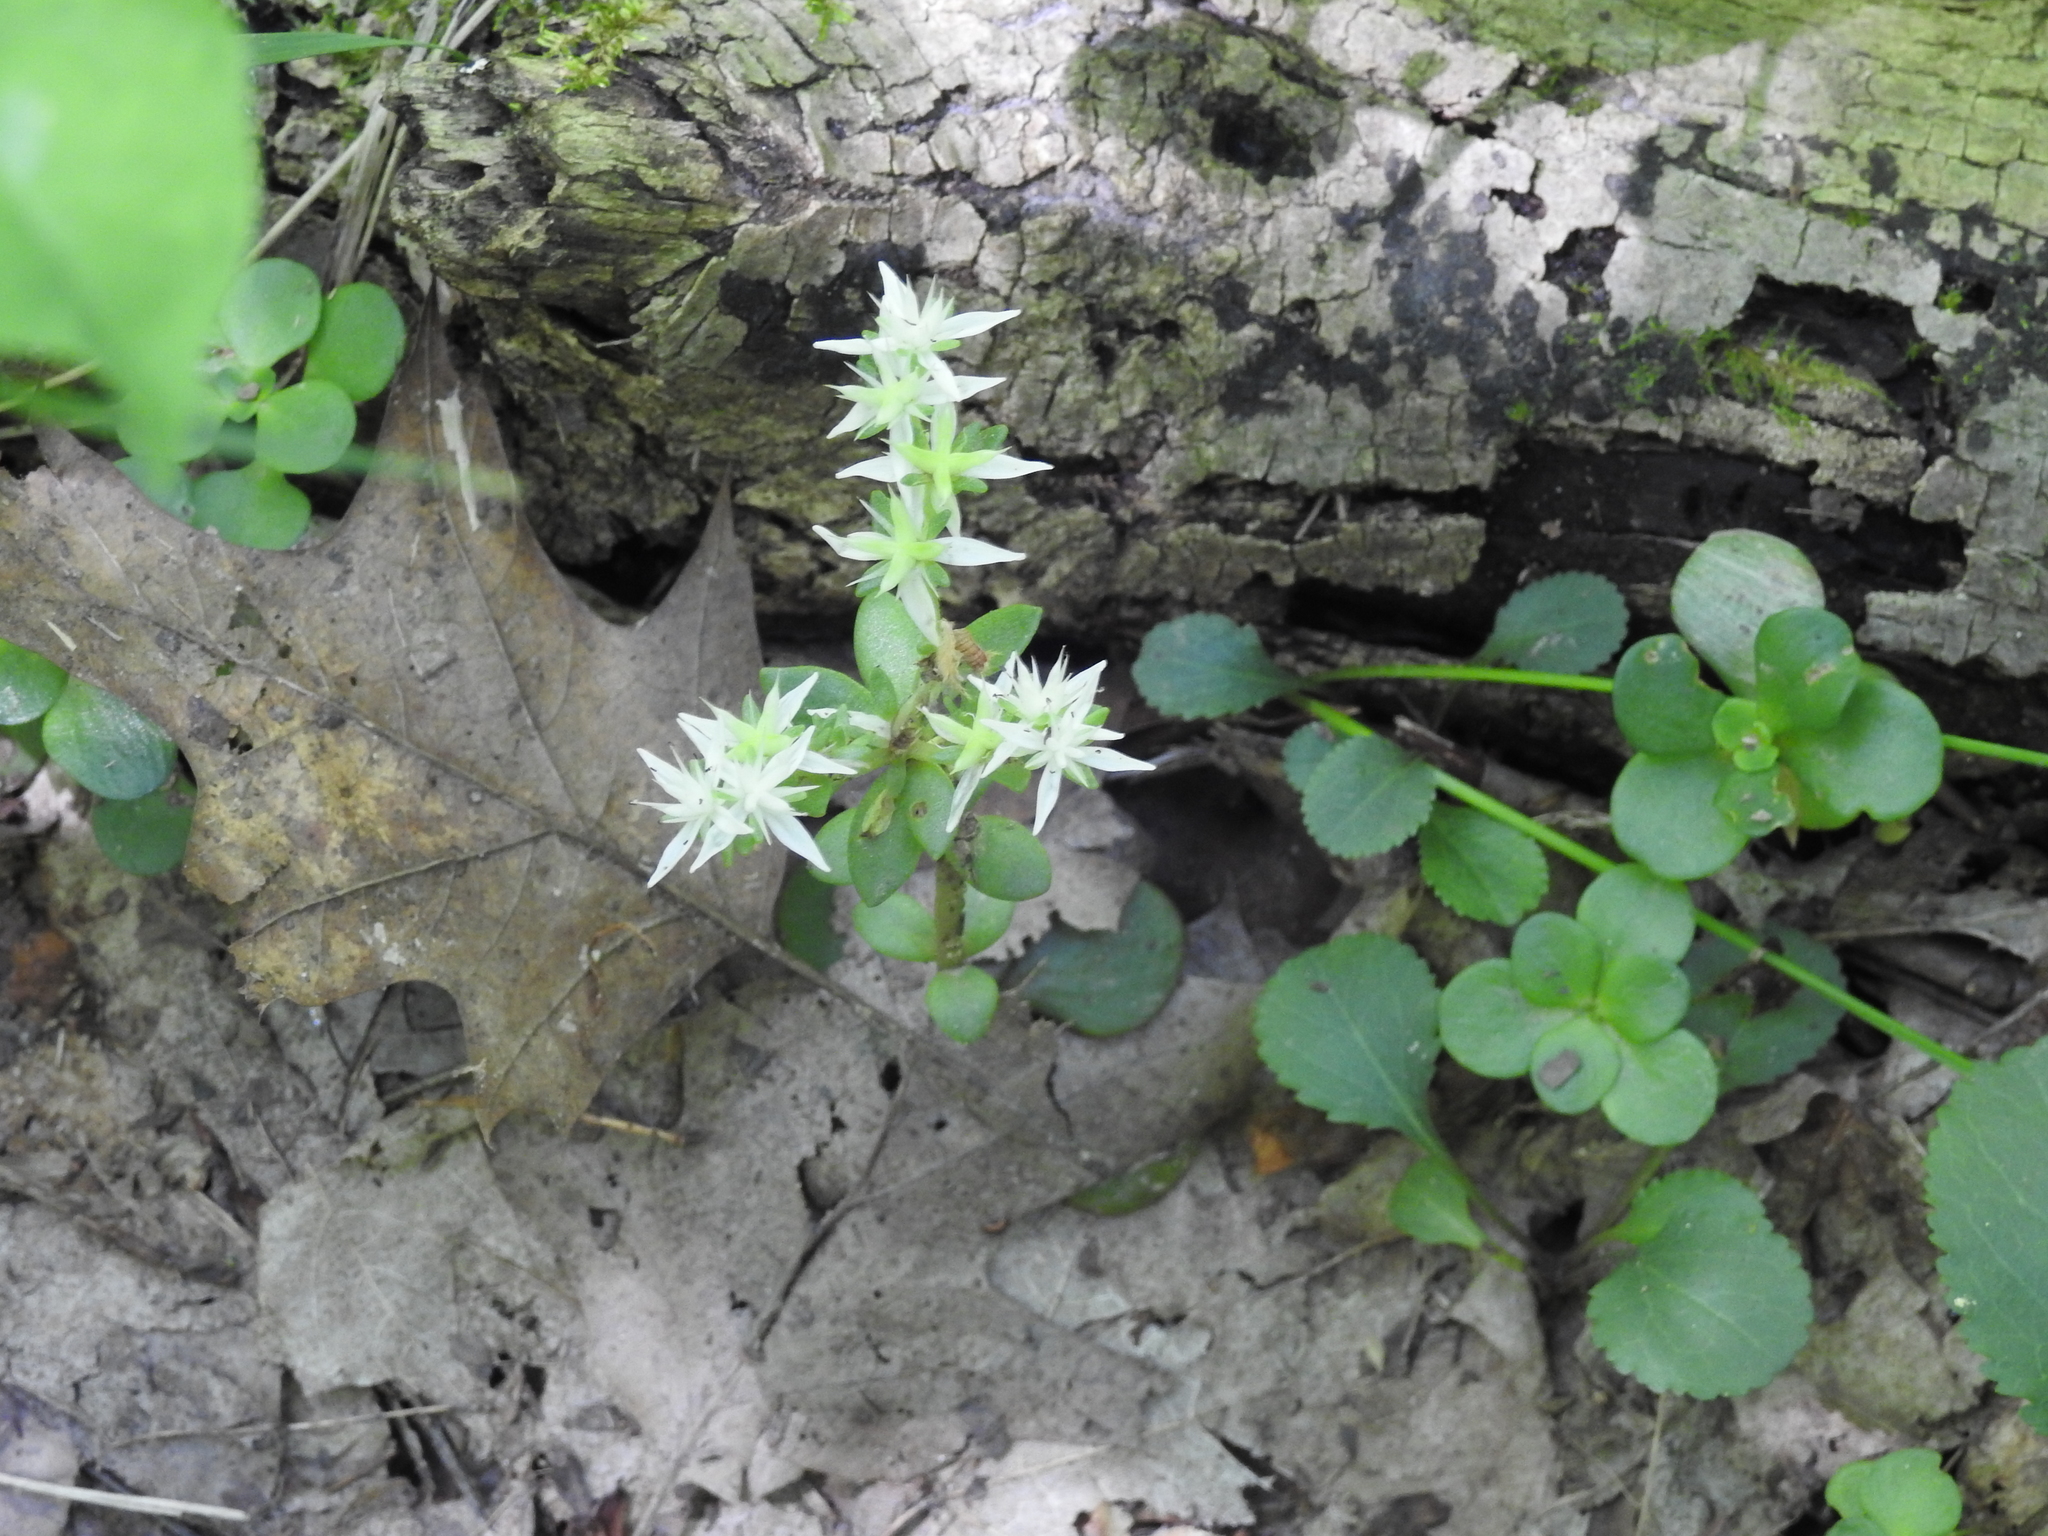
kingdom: Plantae
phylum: Tracheophyta
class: Magnoliopsida
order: Saxifragales
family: Crassulaceae
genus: Sedum
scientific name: Sedum ternatum
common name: Wild stonecrop
